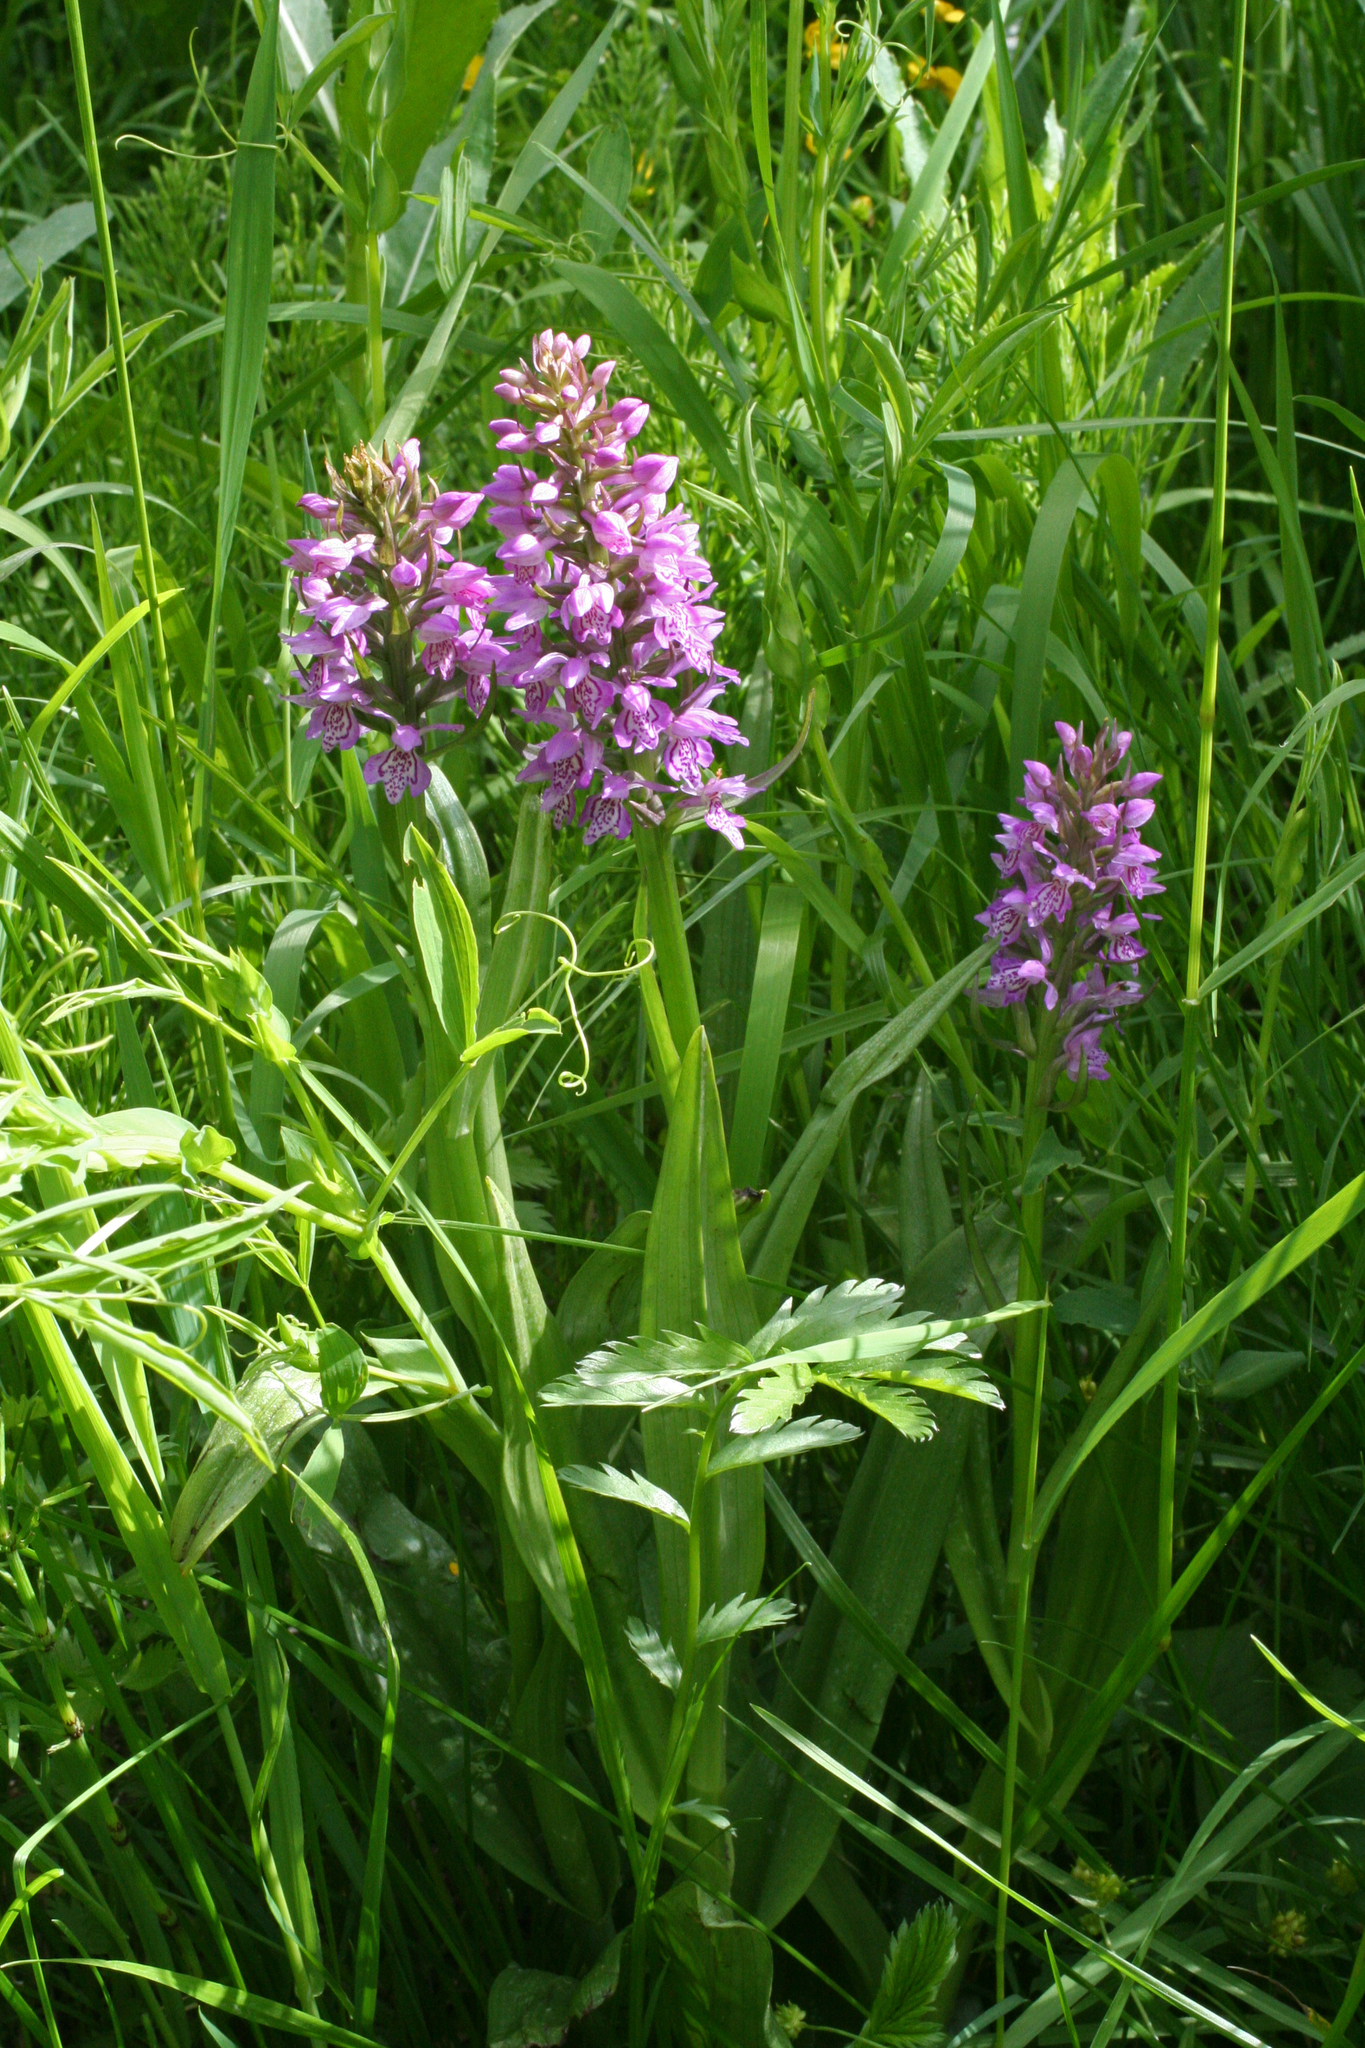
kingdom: Plantae
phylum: Tracheophyta
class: Liliopsida
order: Asparagales
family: Orchidaceae
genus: Dactylorhiza
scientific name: Dactylorhiza sibirica
